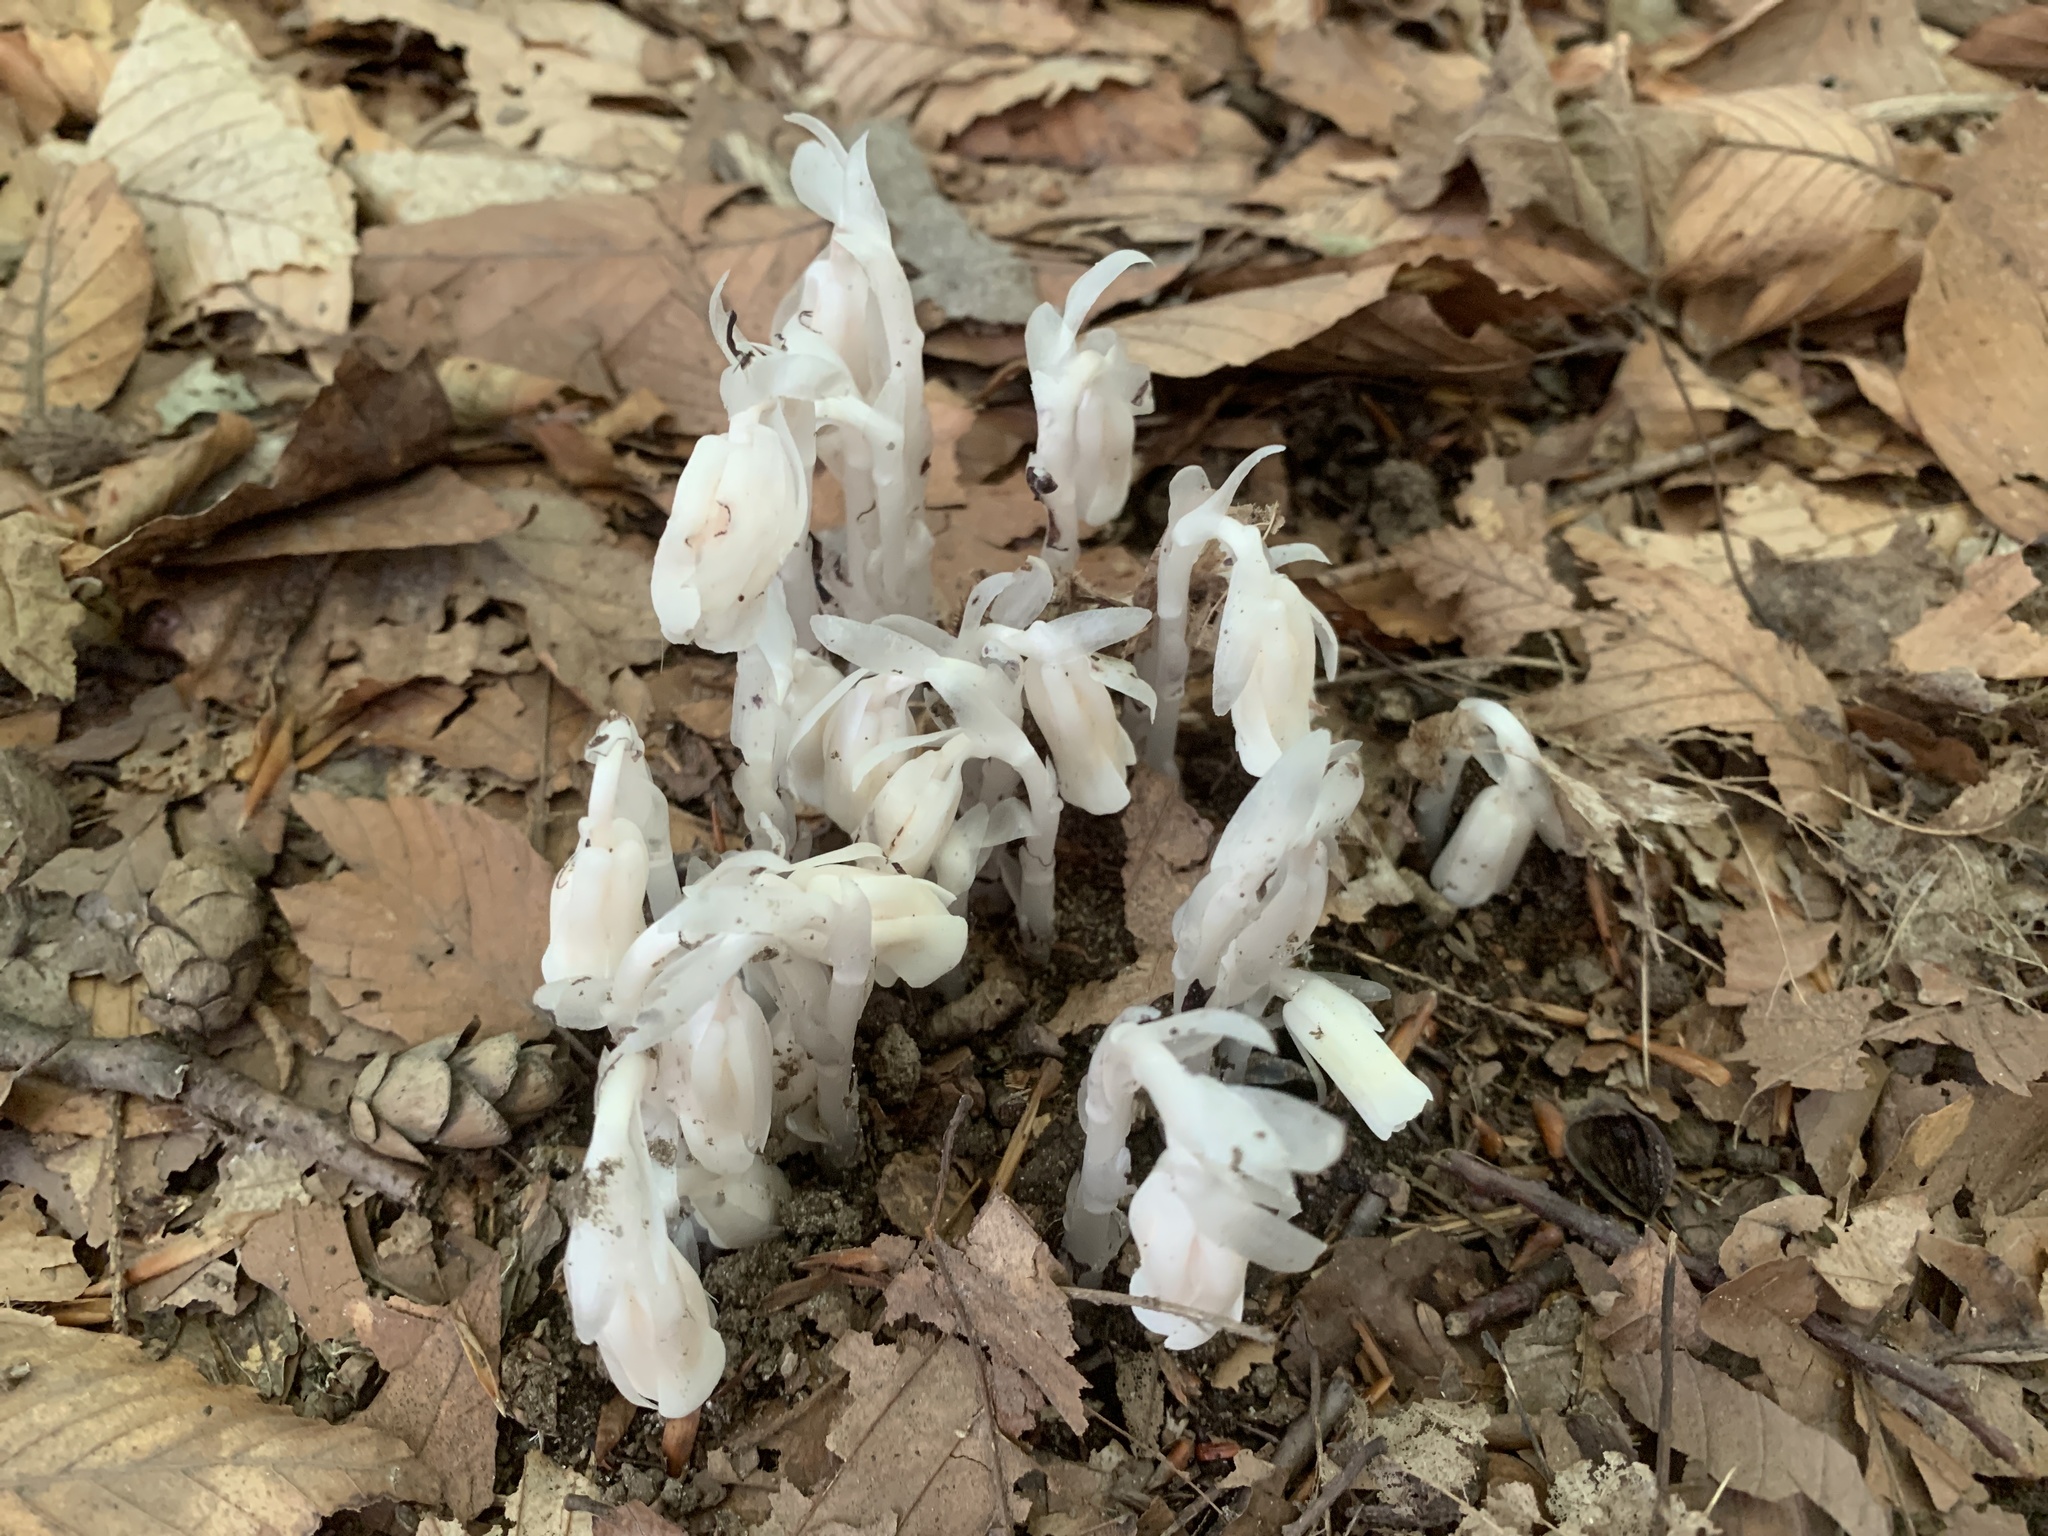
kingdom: Plantae
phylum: Tracheophyta
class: Magnoliopsida
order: Ericales
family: Ericaceae
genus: Monotropa
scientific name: Monotropa uniflora
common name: Convulsion root
